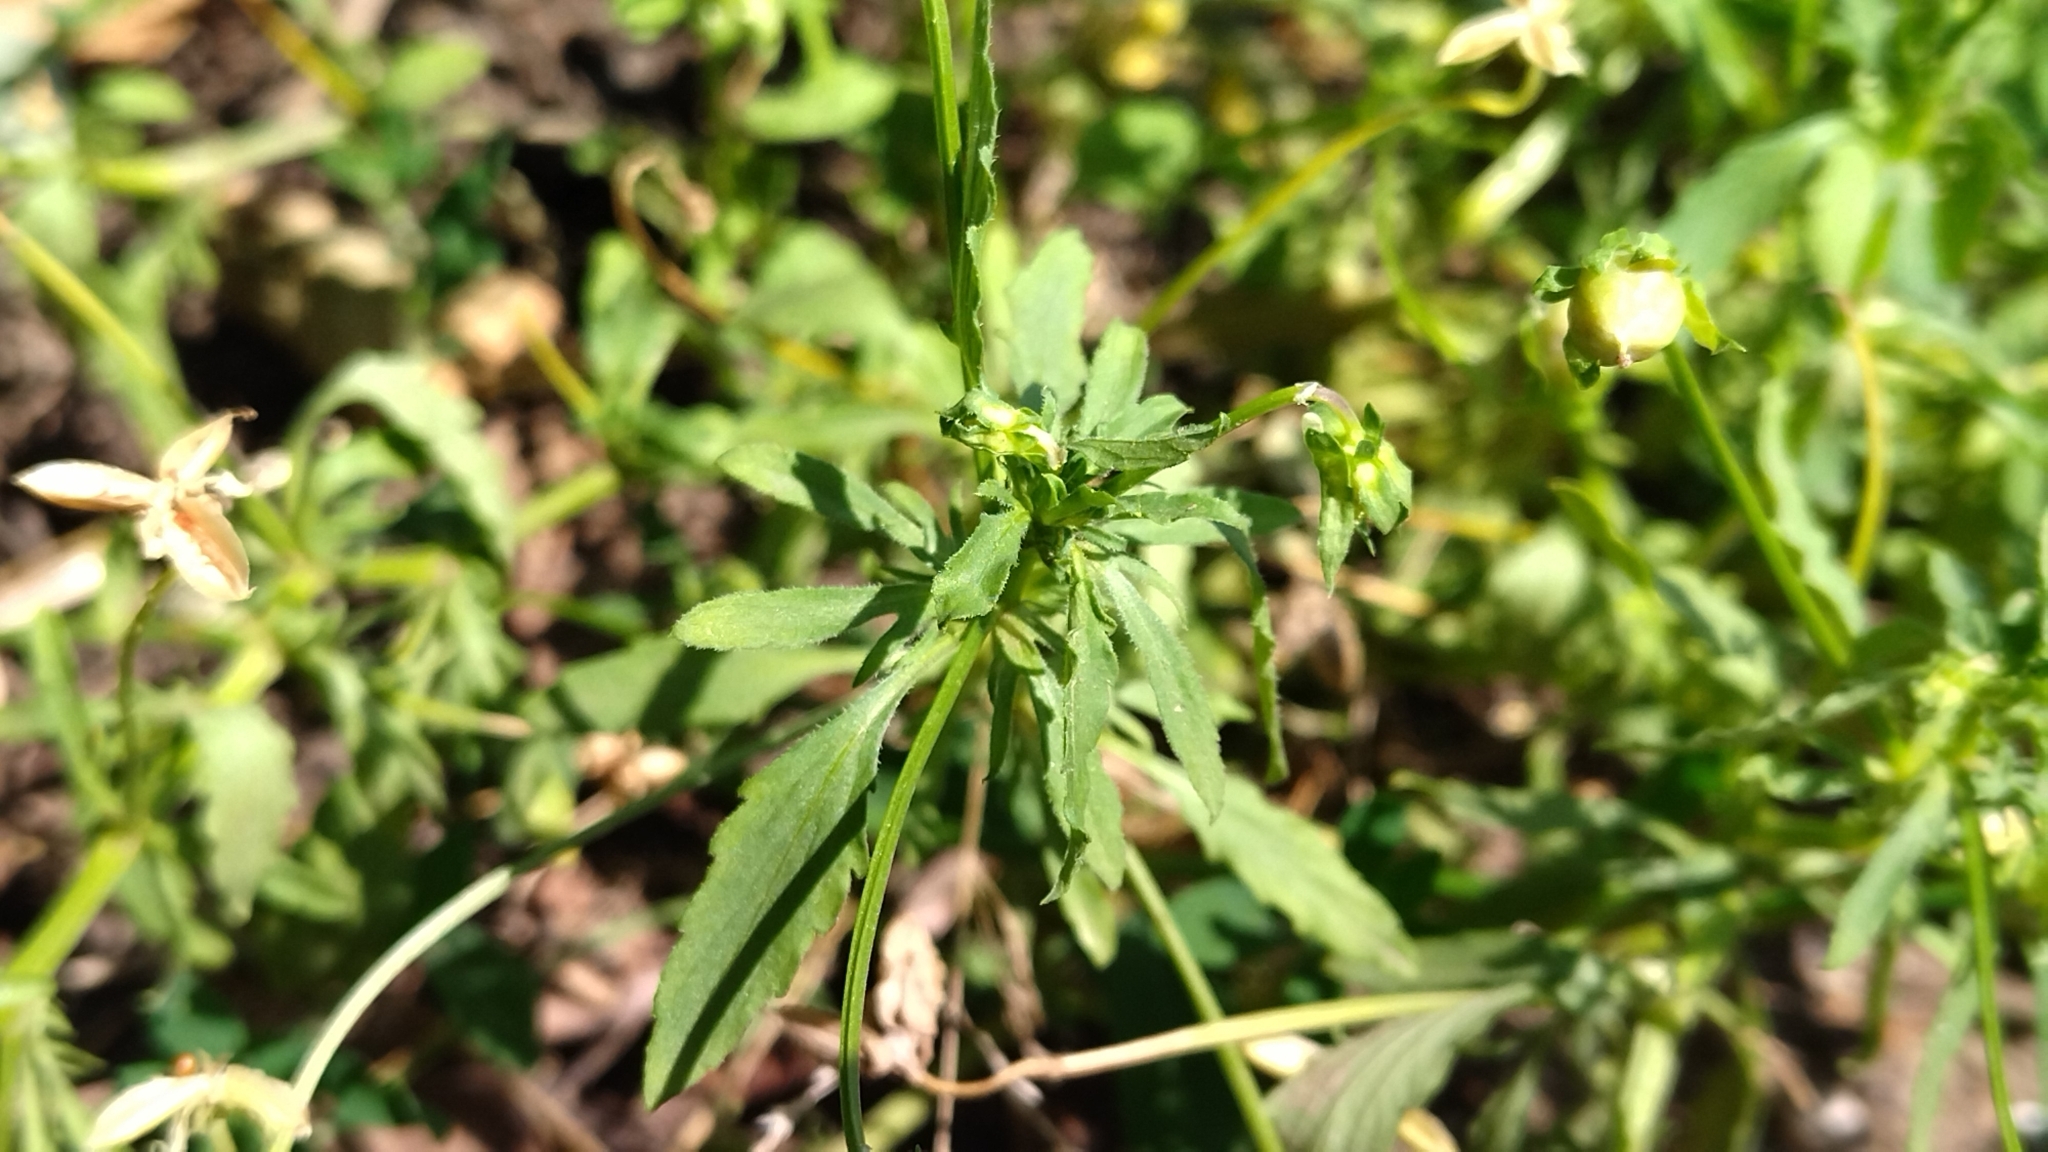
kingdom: Plantae
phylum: Tracheophyta
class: Magnoliopsida
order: Malpighiales
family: Violaceae
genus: Viola
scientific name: Viola arvensis
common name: Field pansy
